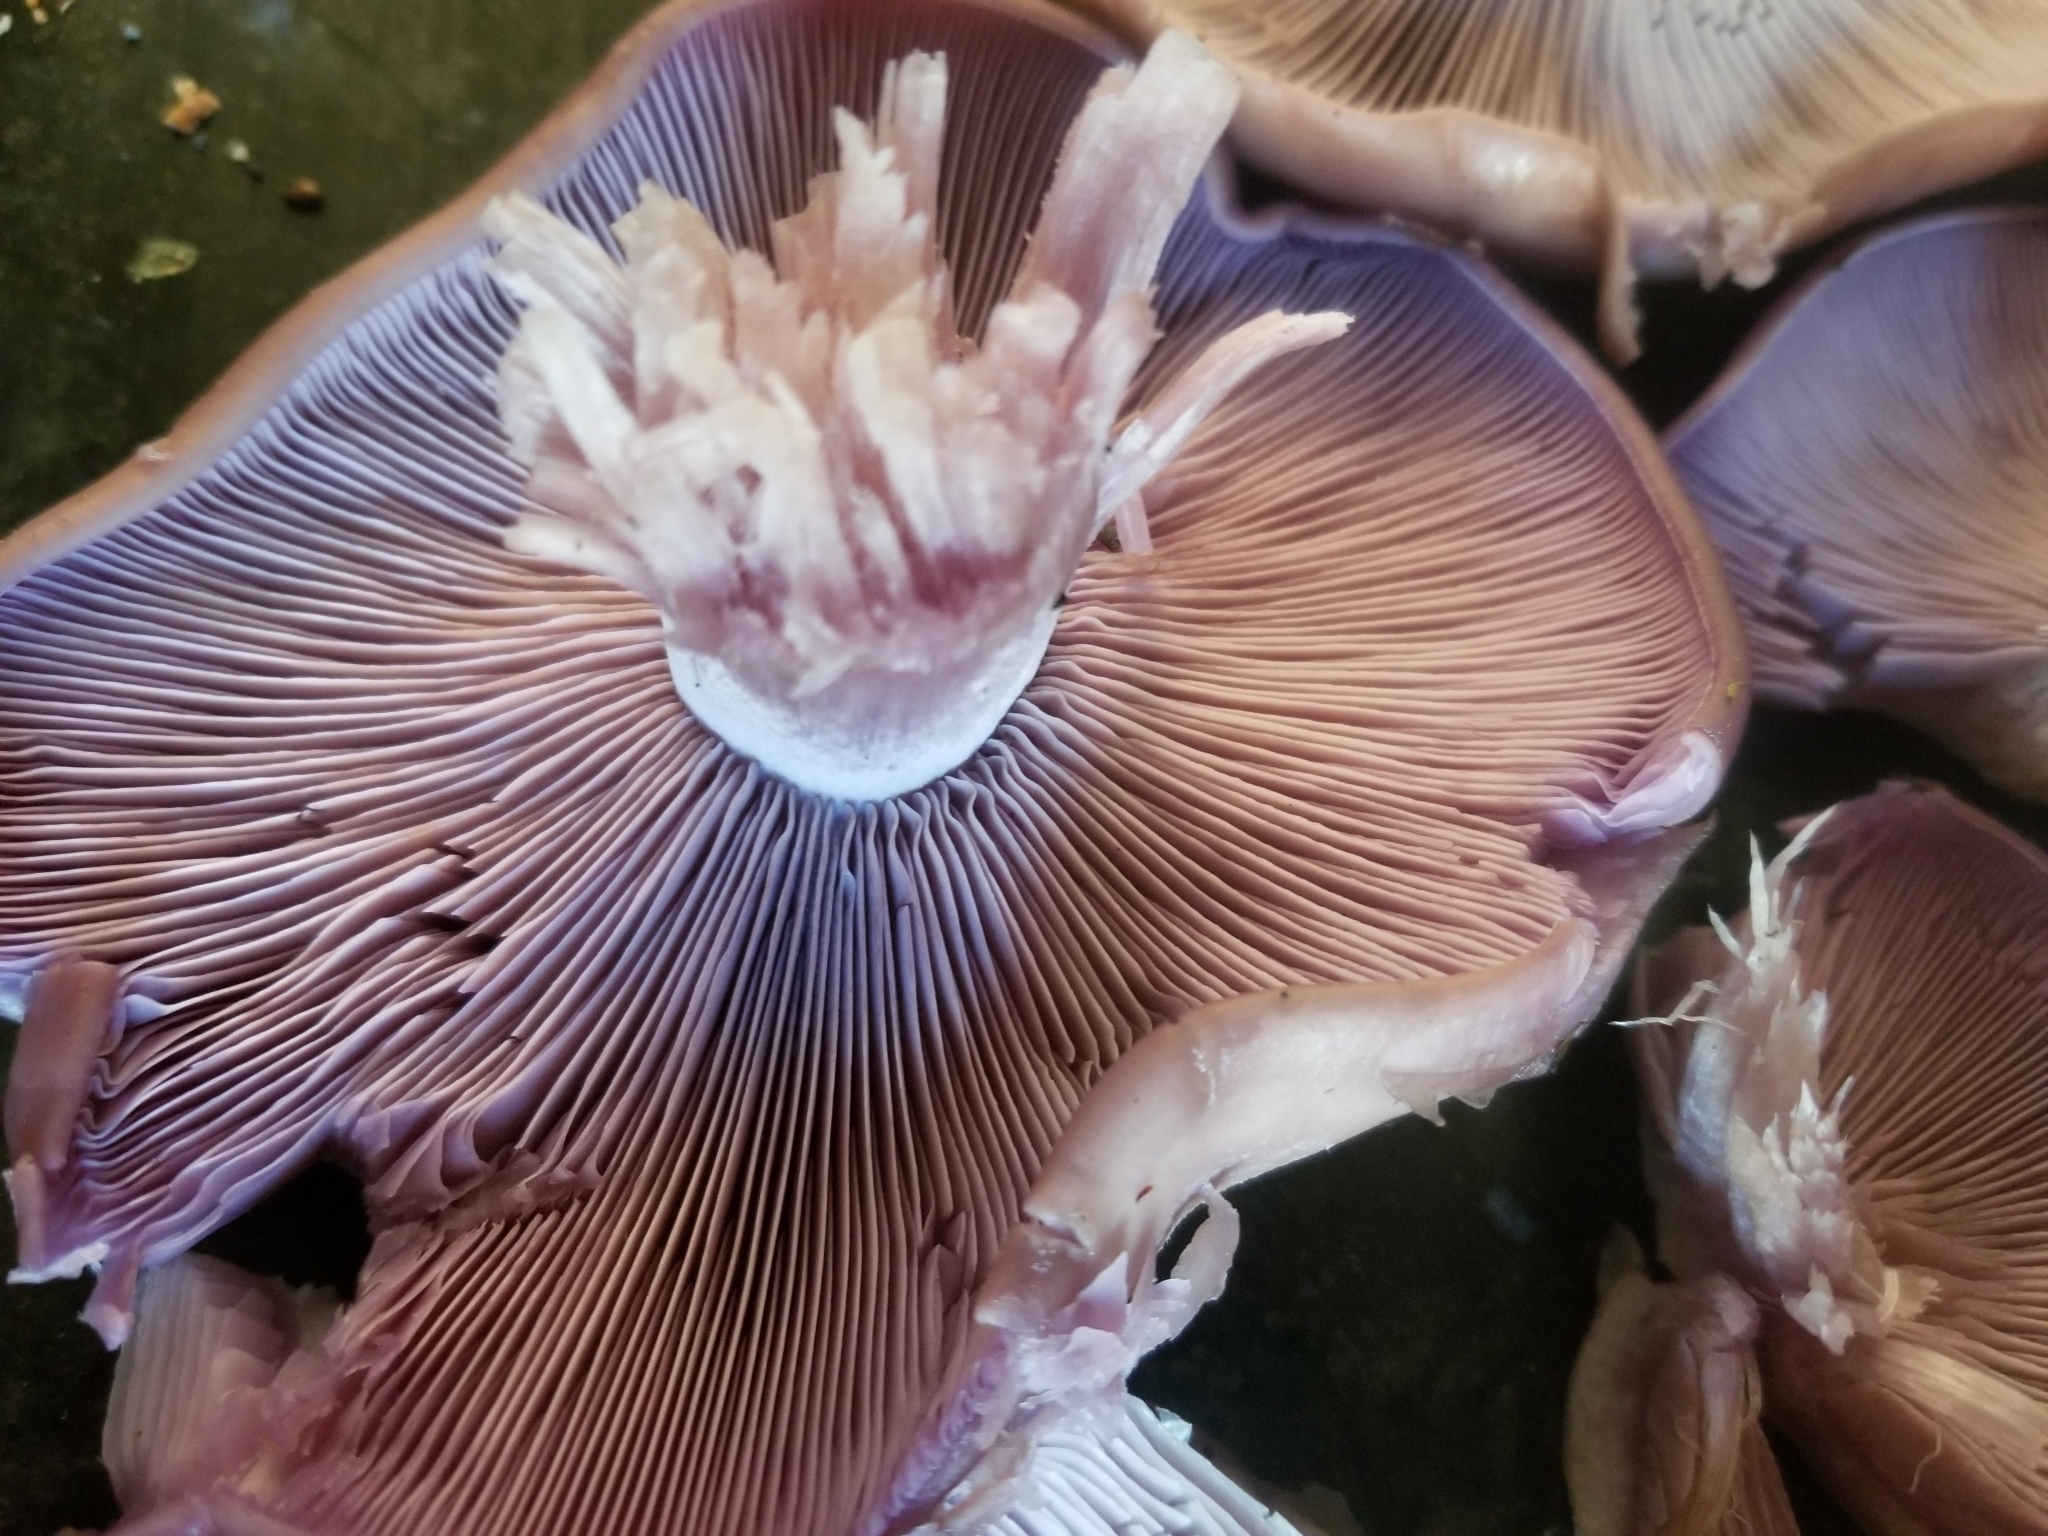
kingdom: Fungi
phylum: Basidiomycota
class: Agaricomycetes
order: Agaricales
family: Tricholomataceae
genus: Collybia
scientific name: Collybia
